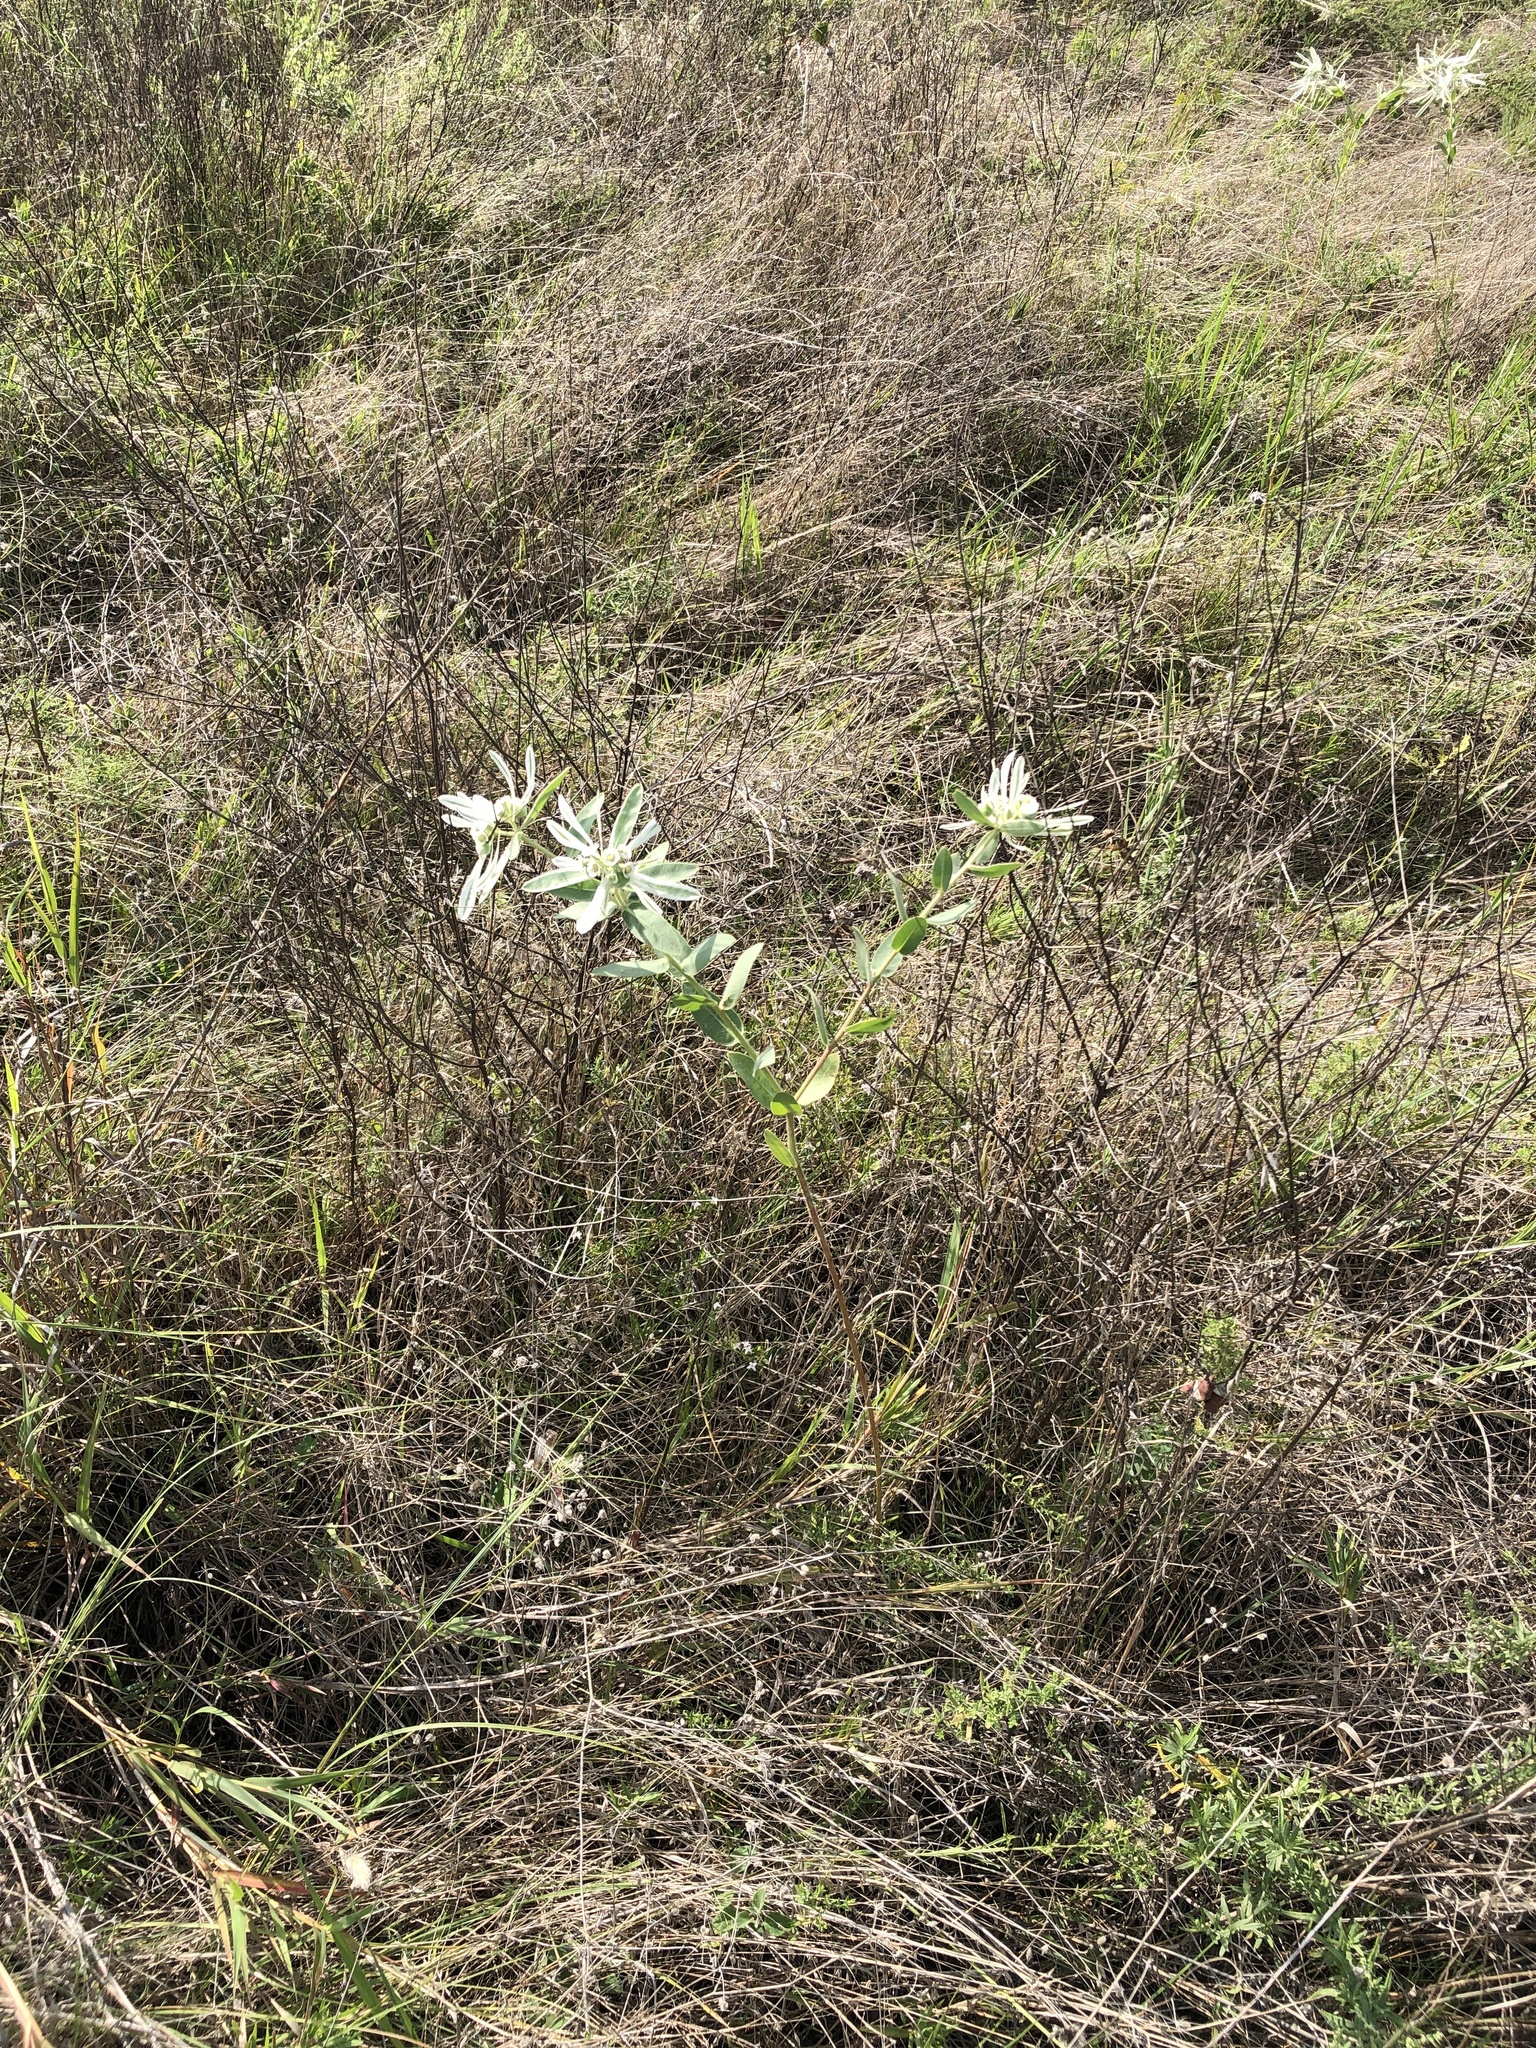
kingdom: Plantae
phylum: Tracheophyta
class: Magnoliopsida
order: Malpighiales
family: Euphorbiaceae
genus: Euphorbia
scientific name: Euphorbia bicolor
